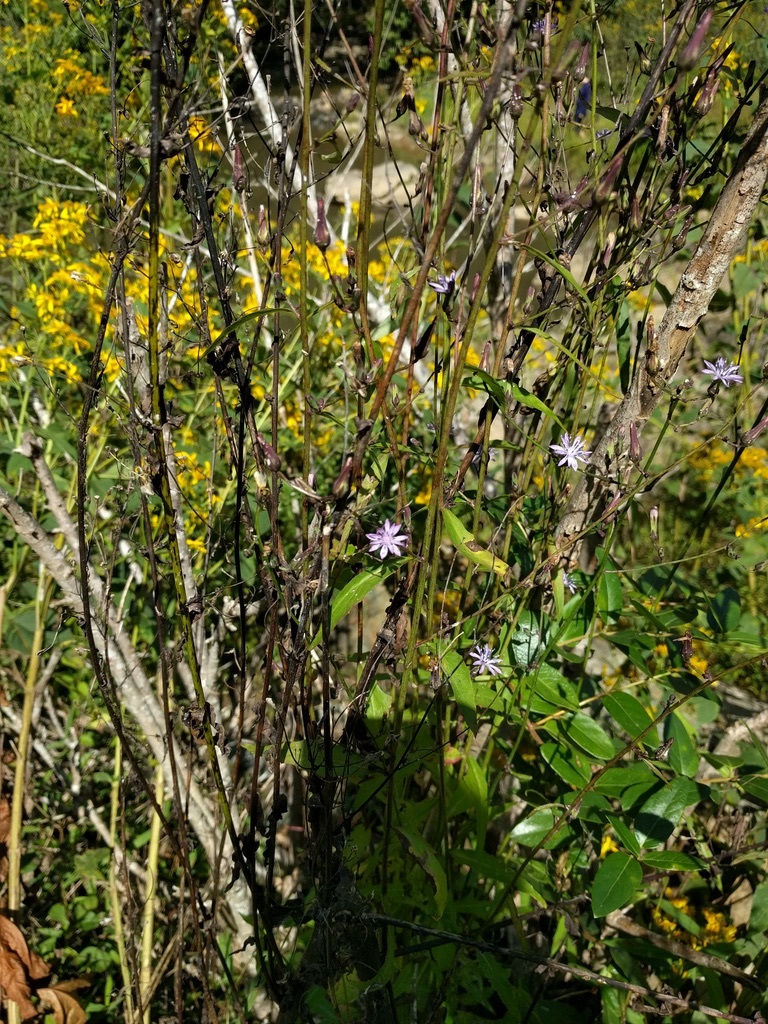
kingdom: Plantae
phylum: Tracheophyta
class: Magnoliopsida
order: Asterales
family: Asteraceae
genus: Lactuca
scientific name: Lactuca floridana
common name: Woodland lettuce
